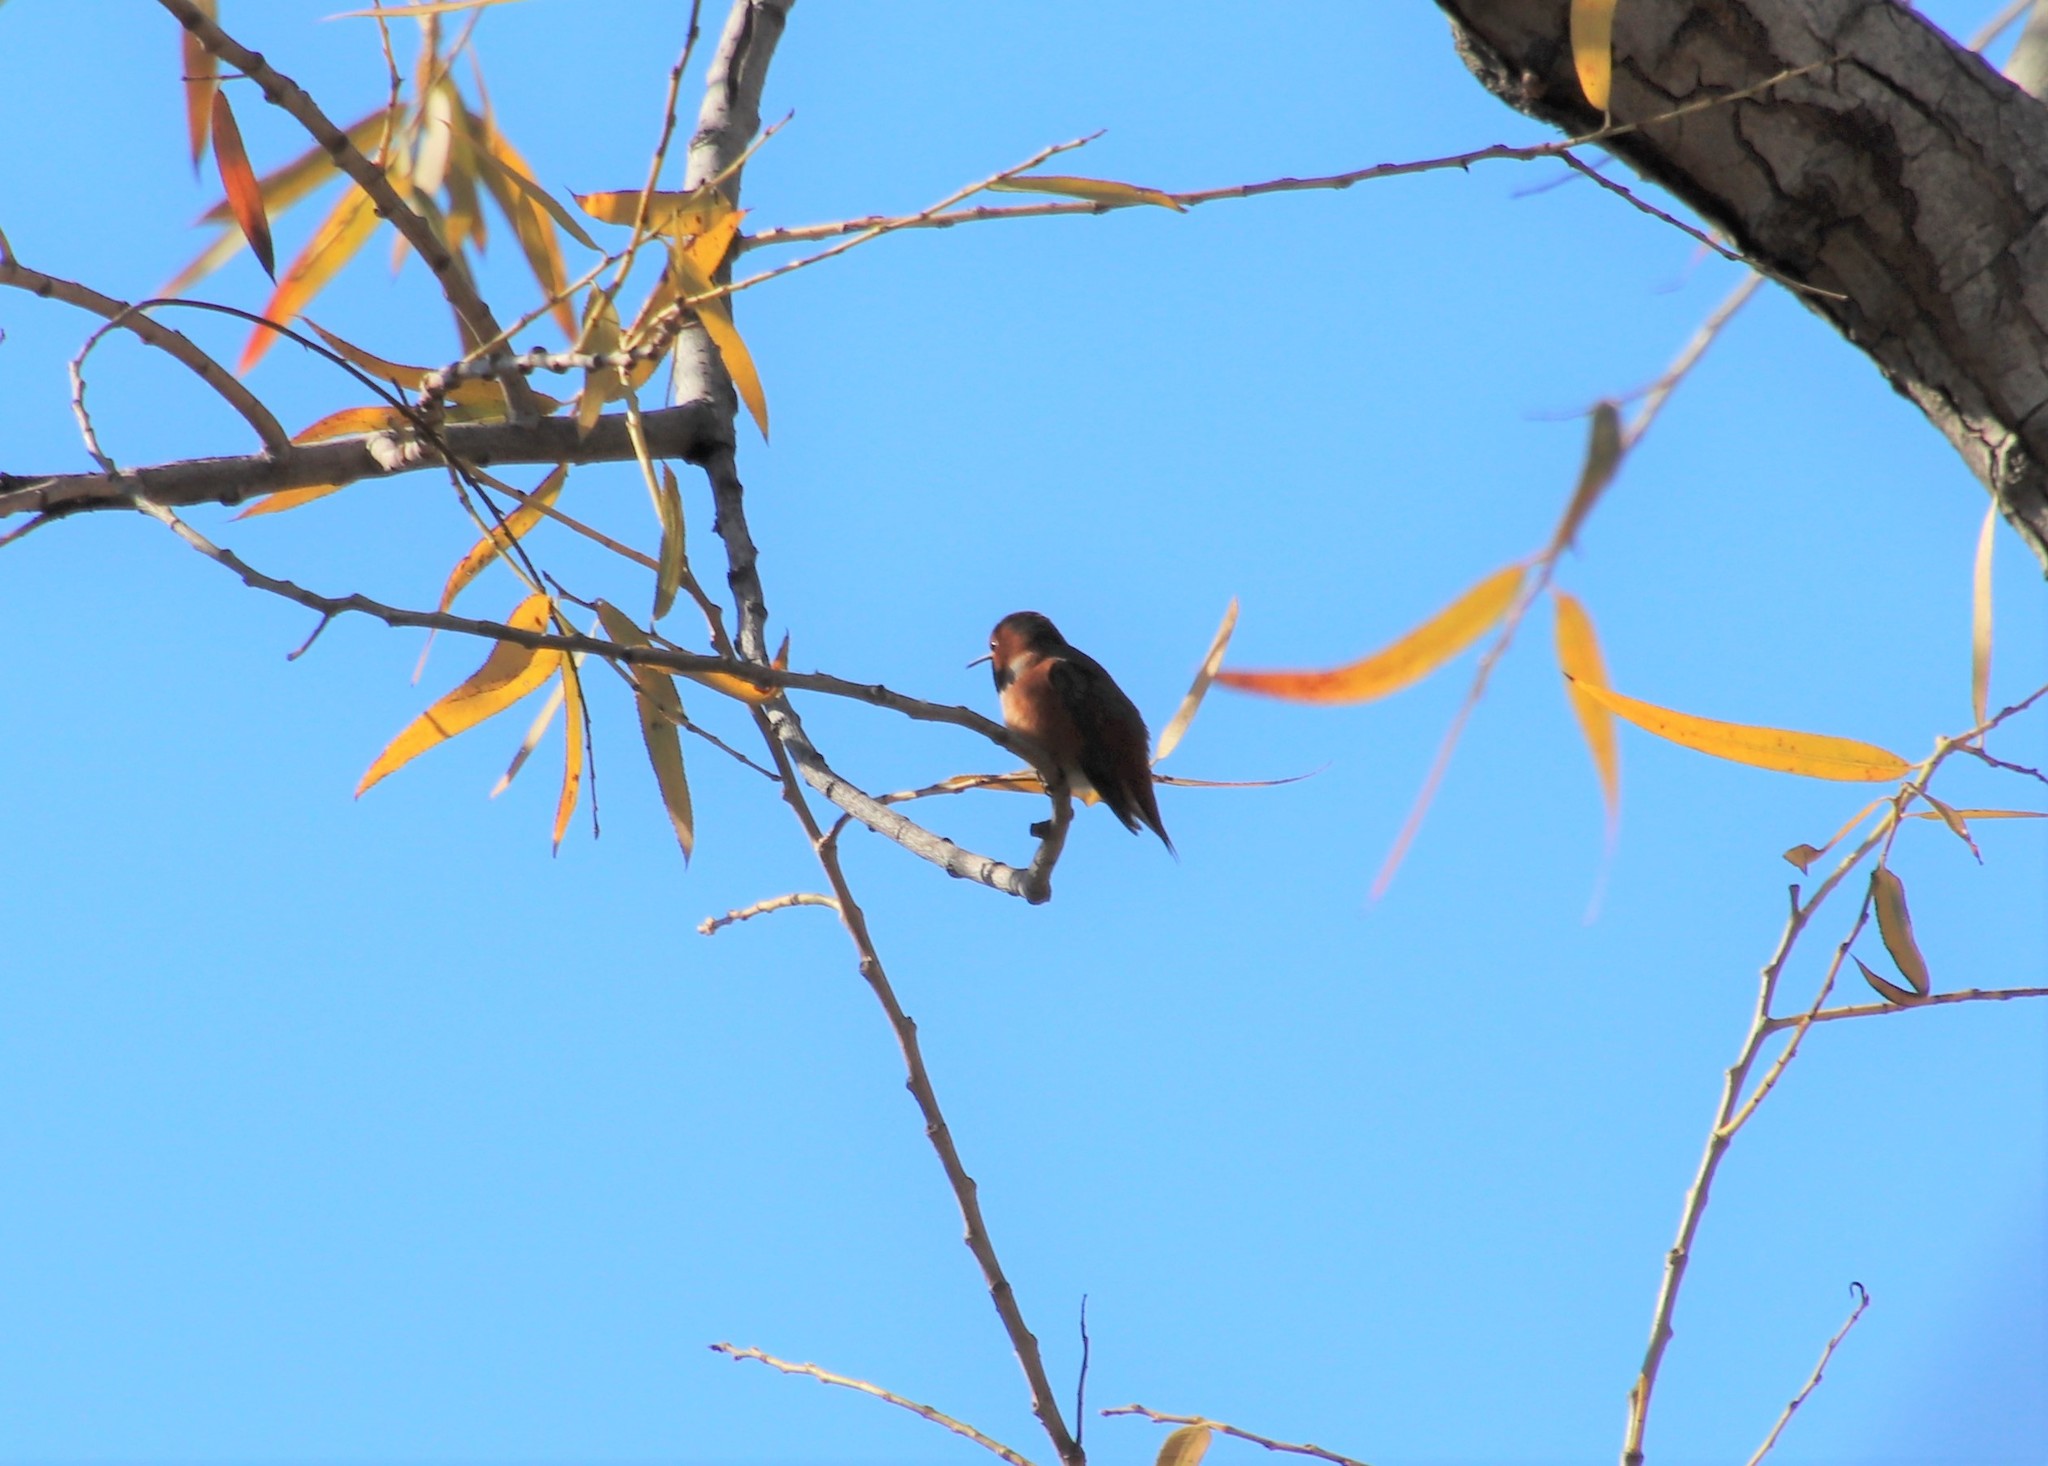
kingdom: Animalia
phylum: Chordata
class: Aves
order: Apodiformes
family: Trochilidae
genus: Selasphorus
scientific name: Selasphorus sasin
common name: Allen's hummingbird
